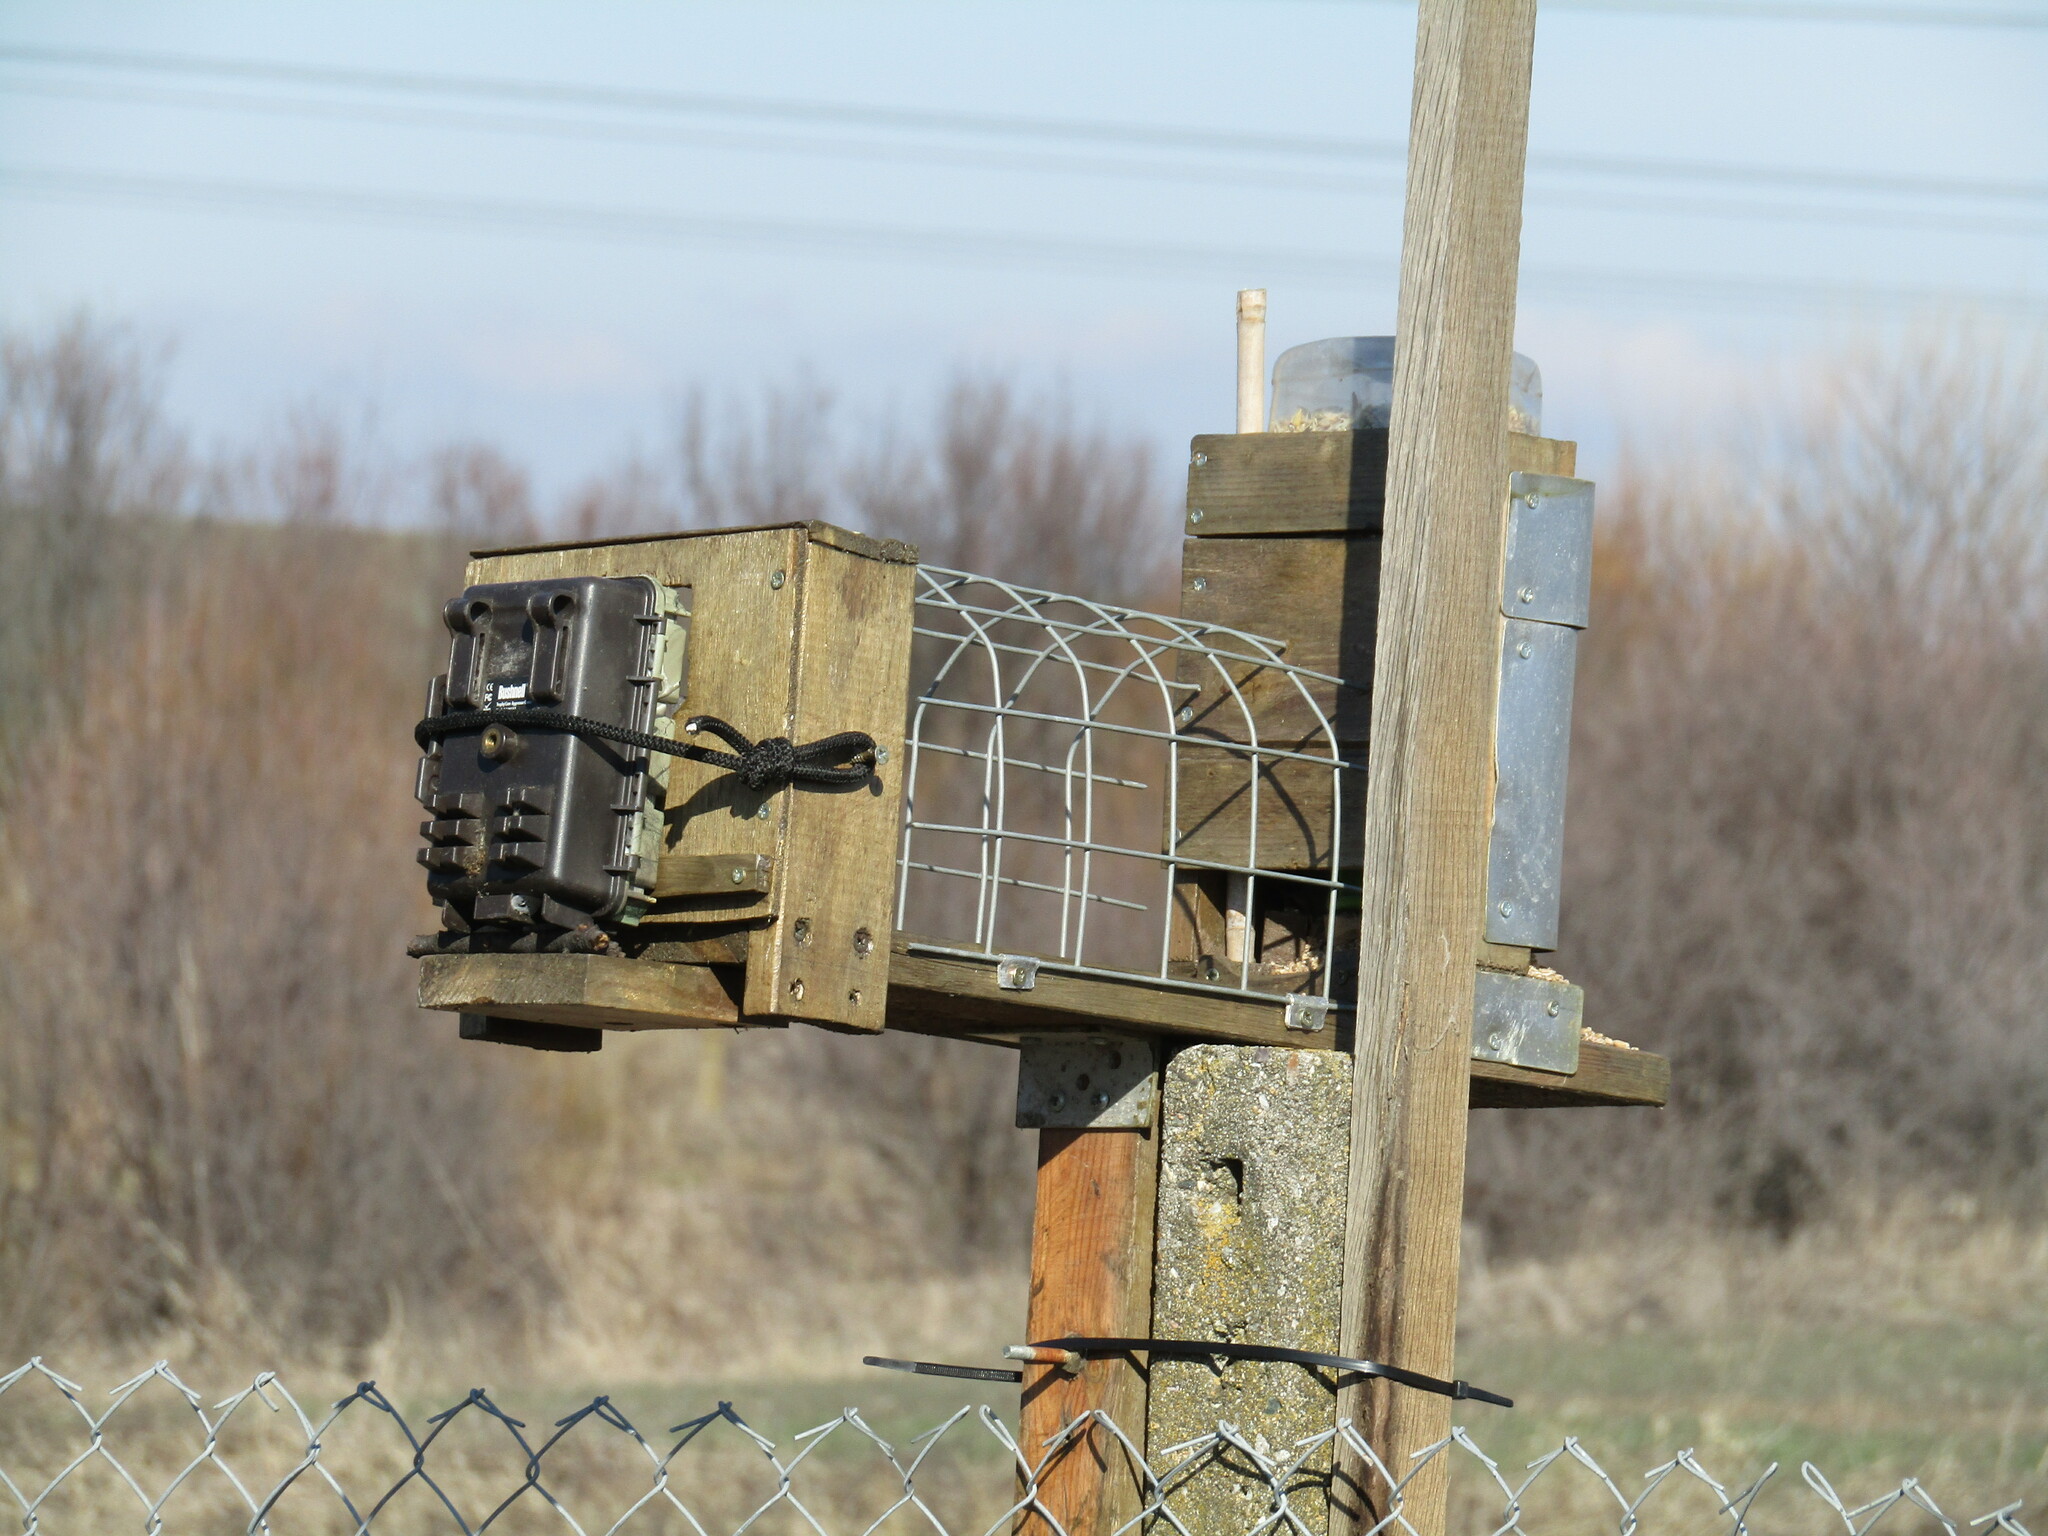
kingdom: Animalia
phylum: Chordata
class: Aves
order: Passeriformes
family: Passeridae
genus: Passer
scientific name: Passer montanus
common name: Eurasian tree sparrow
